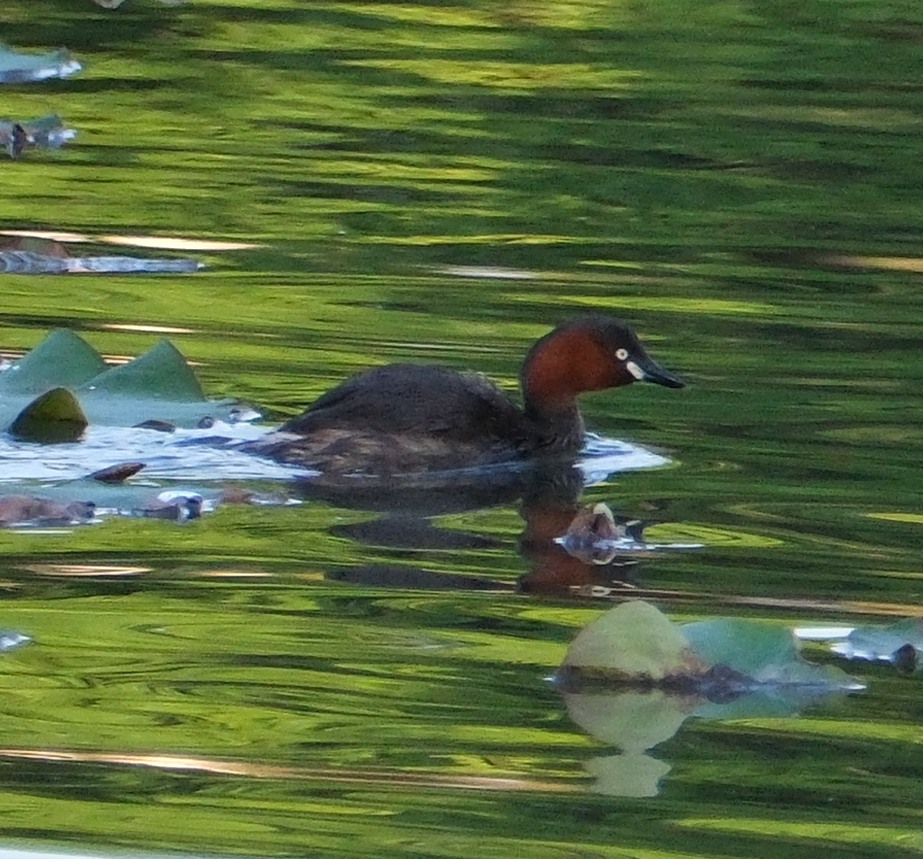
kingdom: Animalia
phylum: Chordata
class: Aves
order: Podicipediformes
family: Podicipedidae
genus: Tachybaptus
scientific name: Tachybaptus ruficollis
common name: Little grebe
